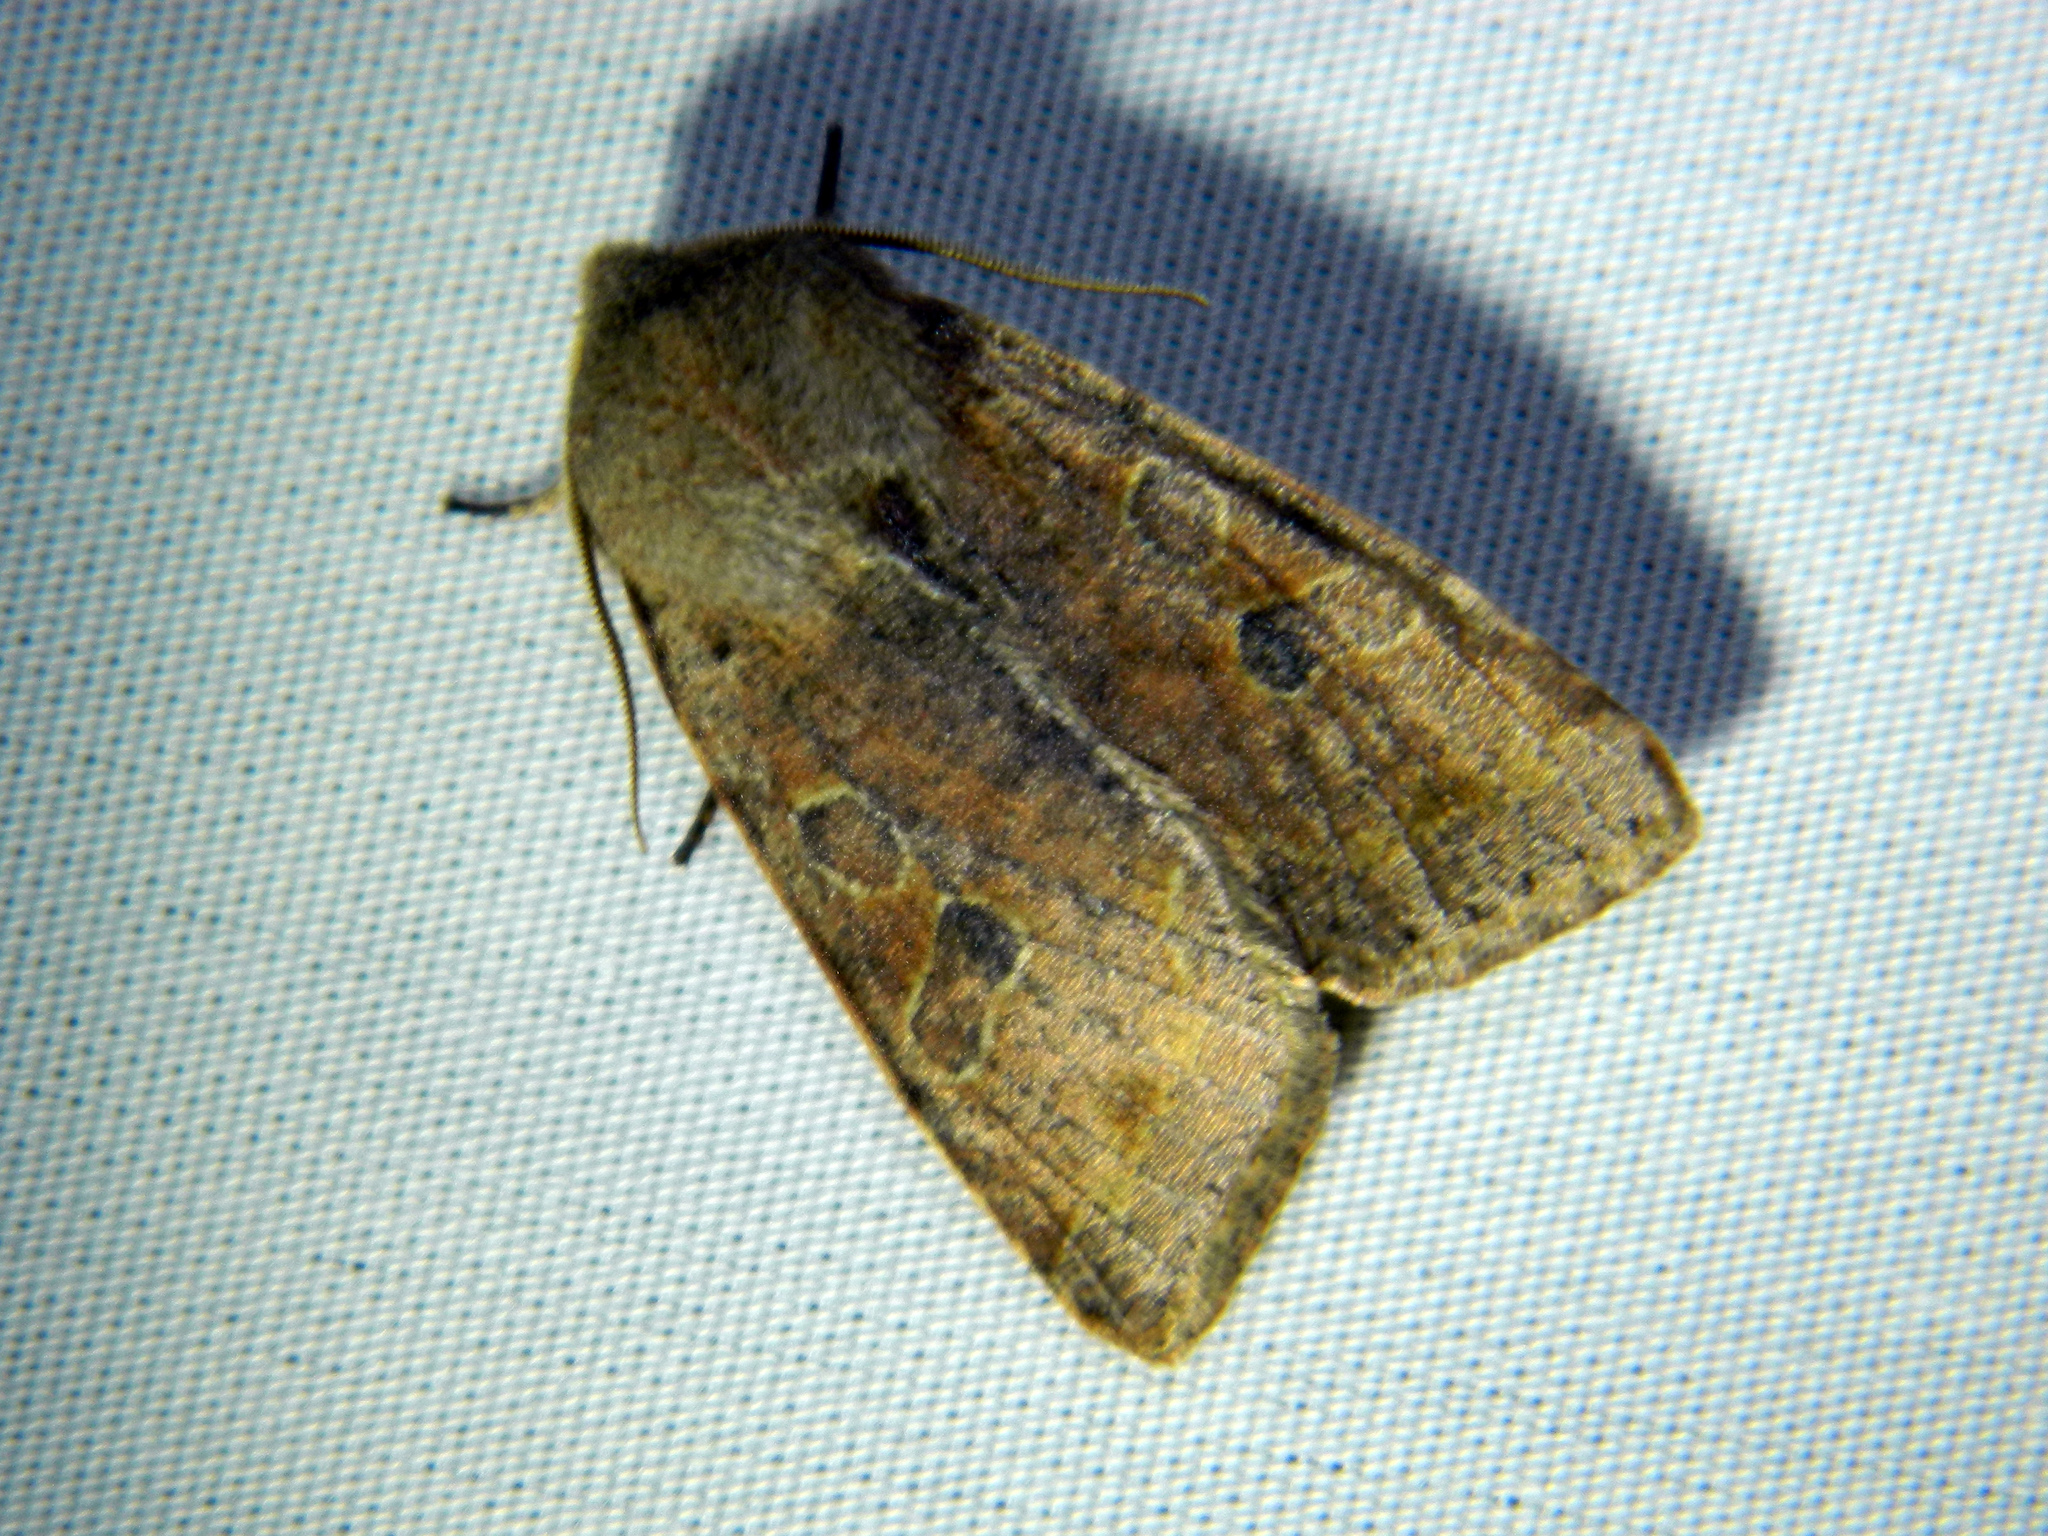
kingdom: Animalia
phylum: Arthropoda
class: Insecta
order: Lepidoptera
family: Noctuidae
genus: Orthosia
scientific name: Orthosia hibisci
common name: Green fruitworm
